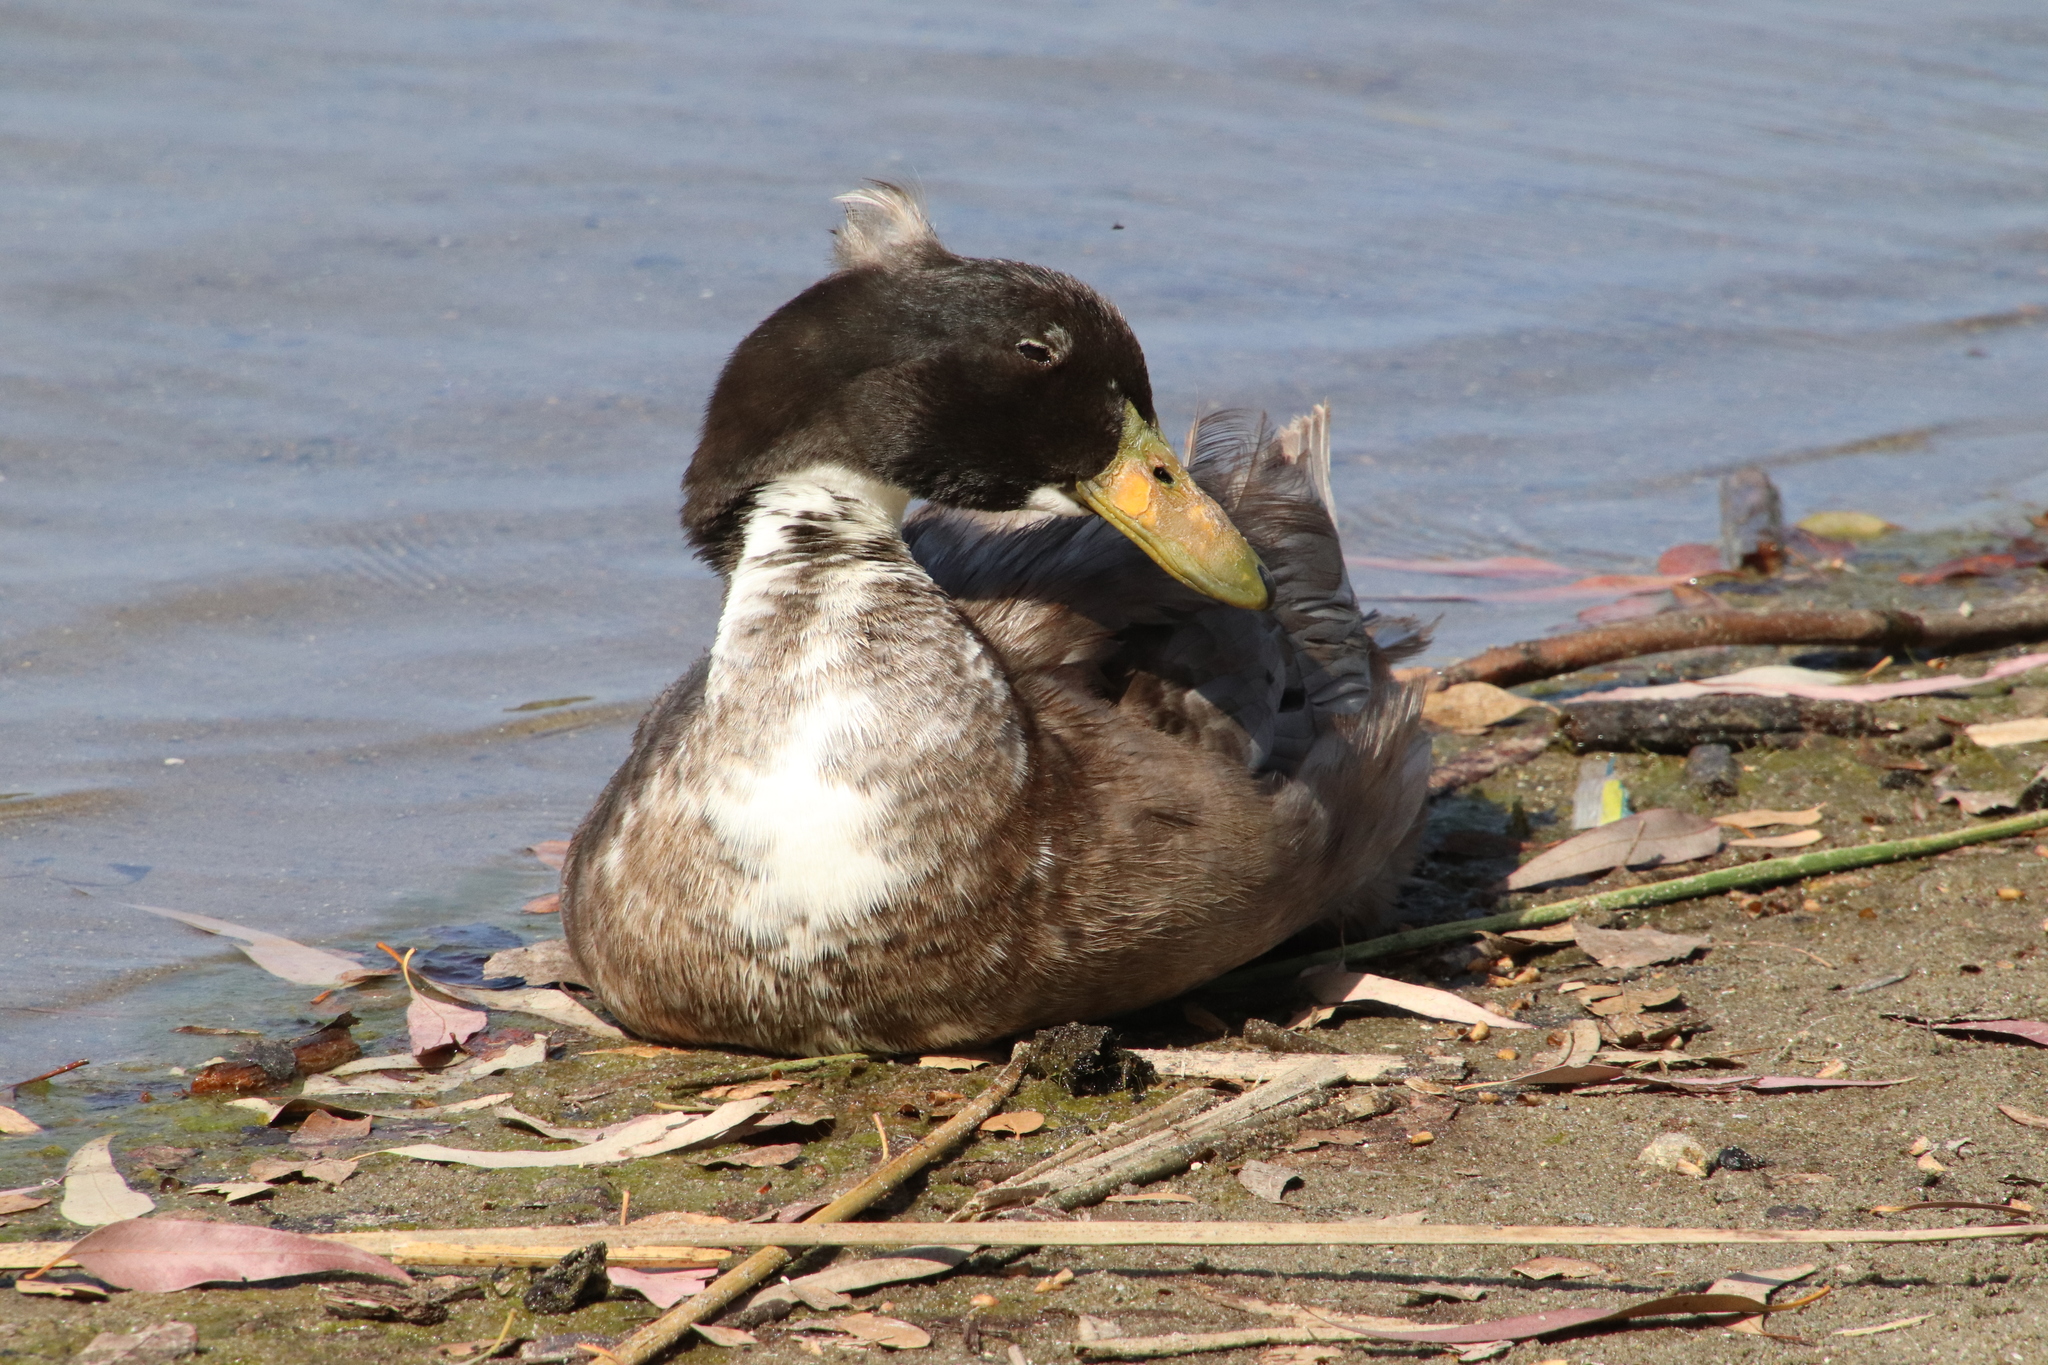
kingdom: Animalia
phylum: Chordata
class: Aves
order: Anseriformes
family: Anatidae
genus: Anas
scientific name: Anas platyrhynchos
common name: Mallard
